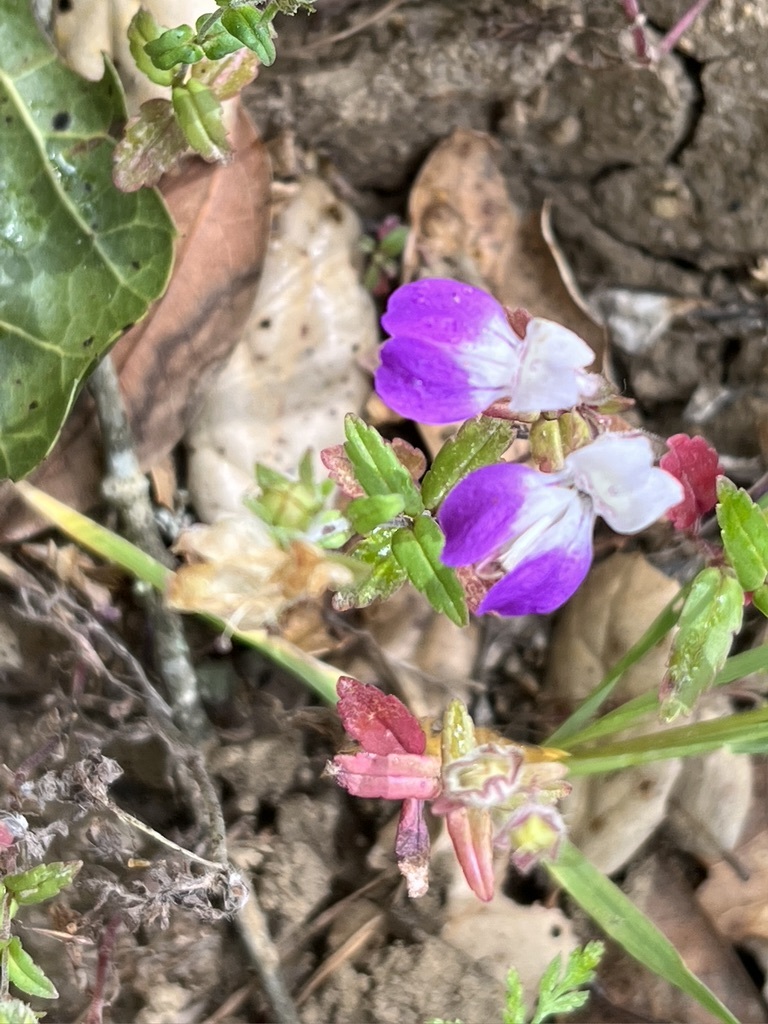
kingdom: Plantae
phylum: Tracheophyta
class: Magnoliopsida
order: Lamiales
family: Plantaginaceae
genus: Collinsia
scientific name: Collinsia heterophylla
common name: Chinese-houses
